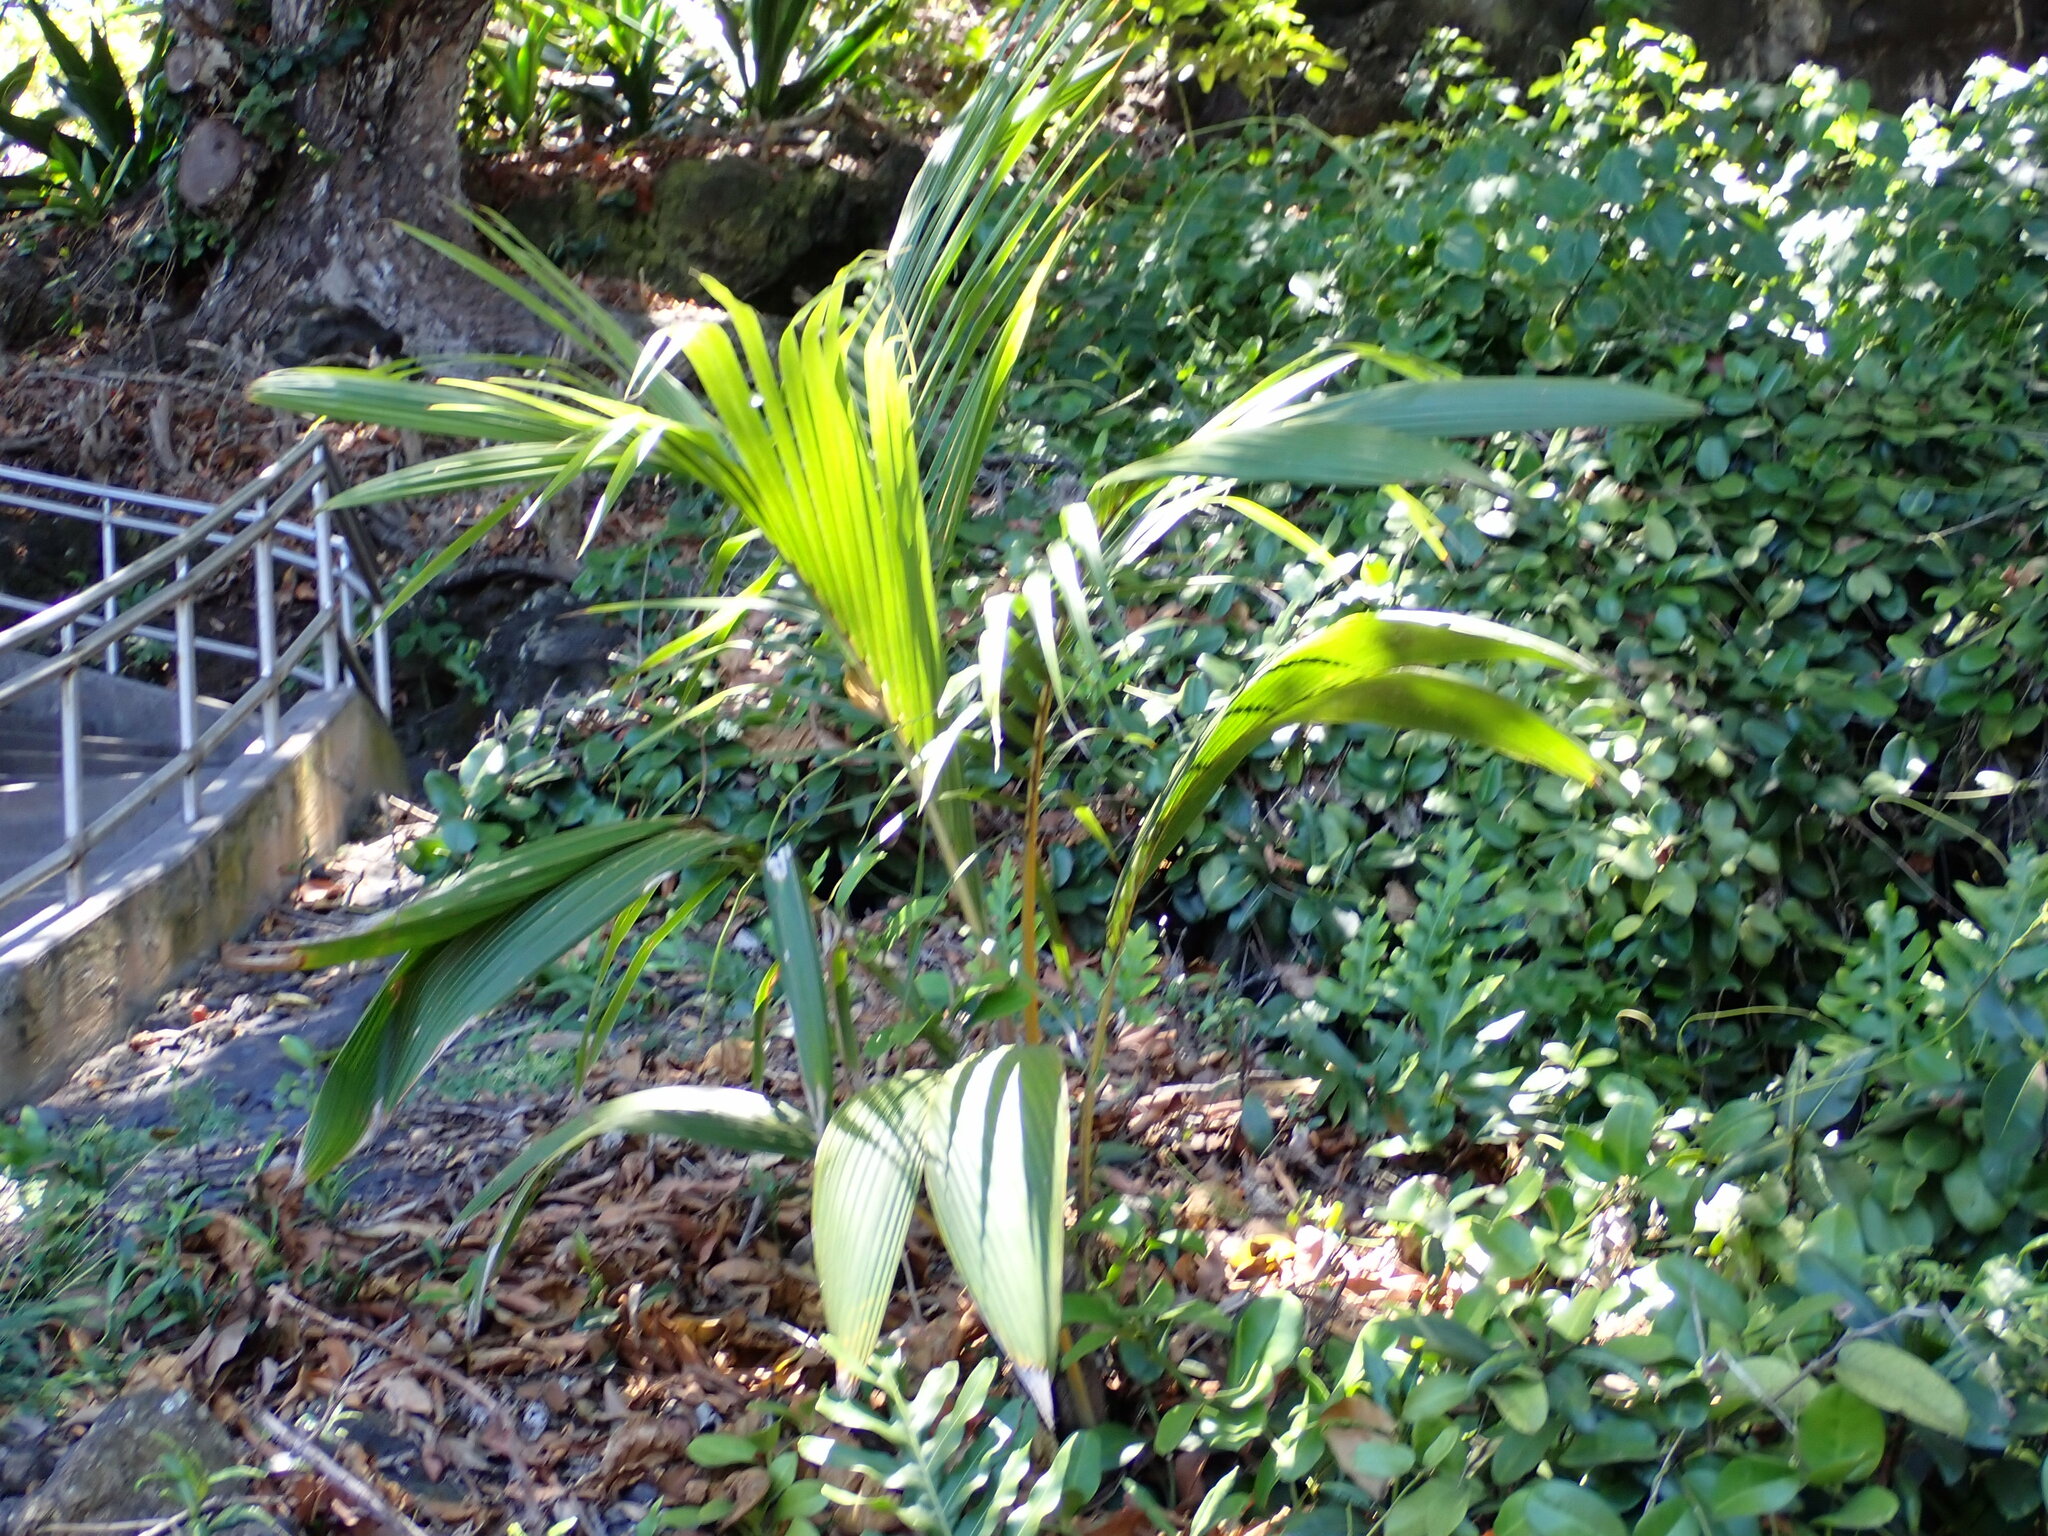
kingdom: Plantae
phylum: Tracheophyta
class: Liliopsida
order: Arecales
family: Arecaceae
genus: Cocos
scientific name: Cocos nucifera
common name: Coconut palm
